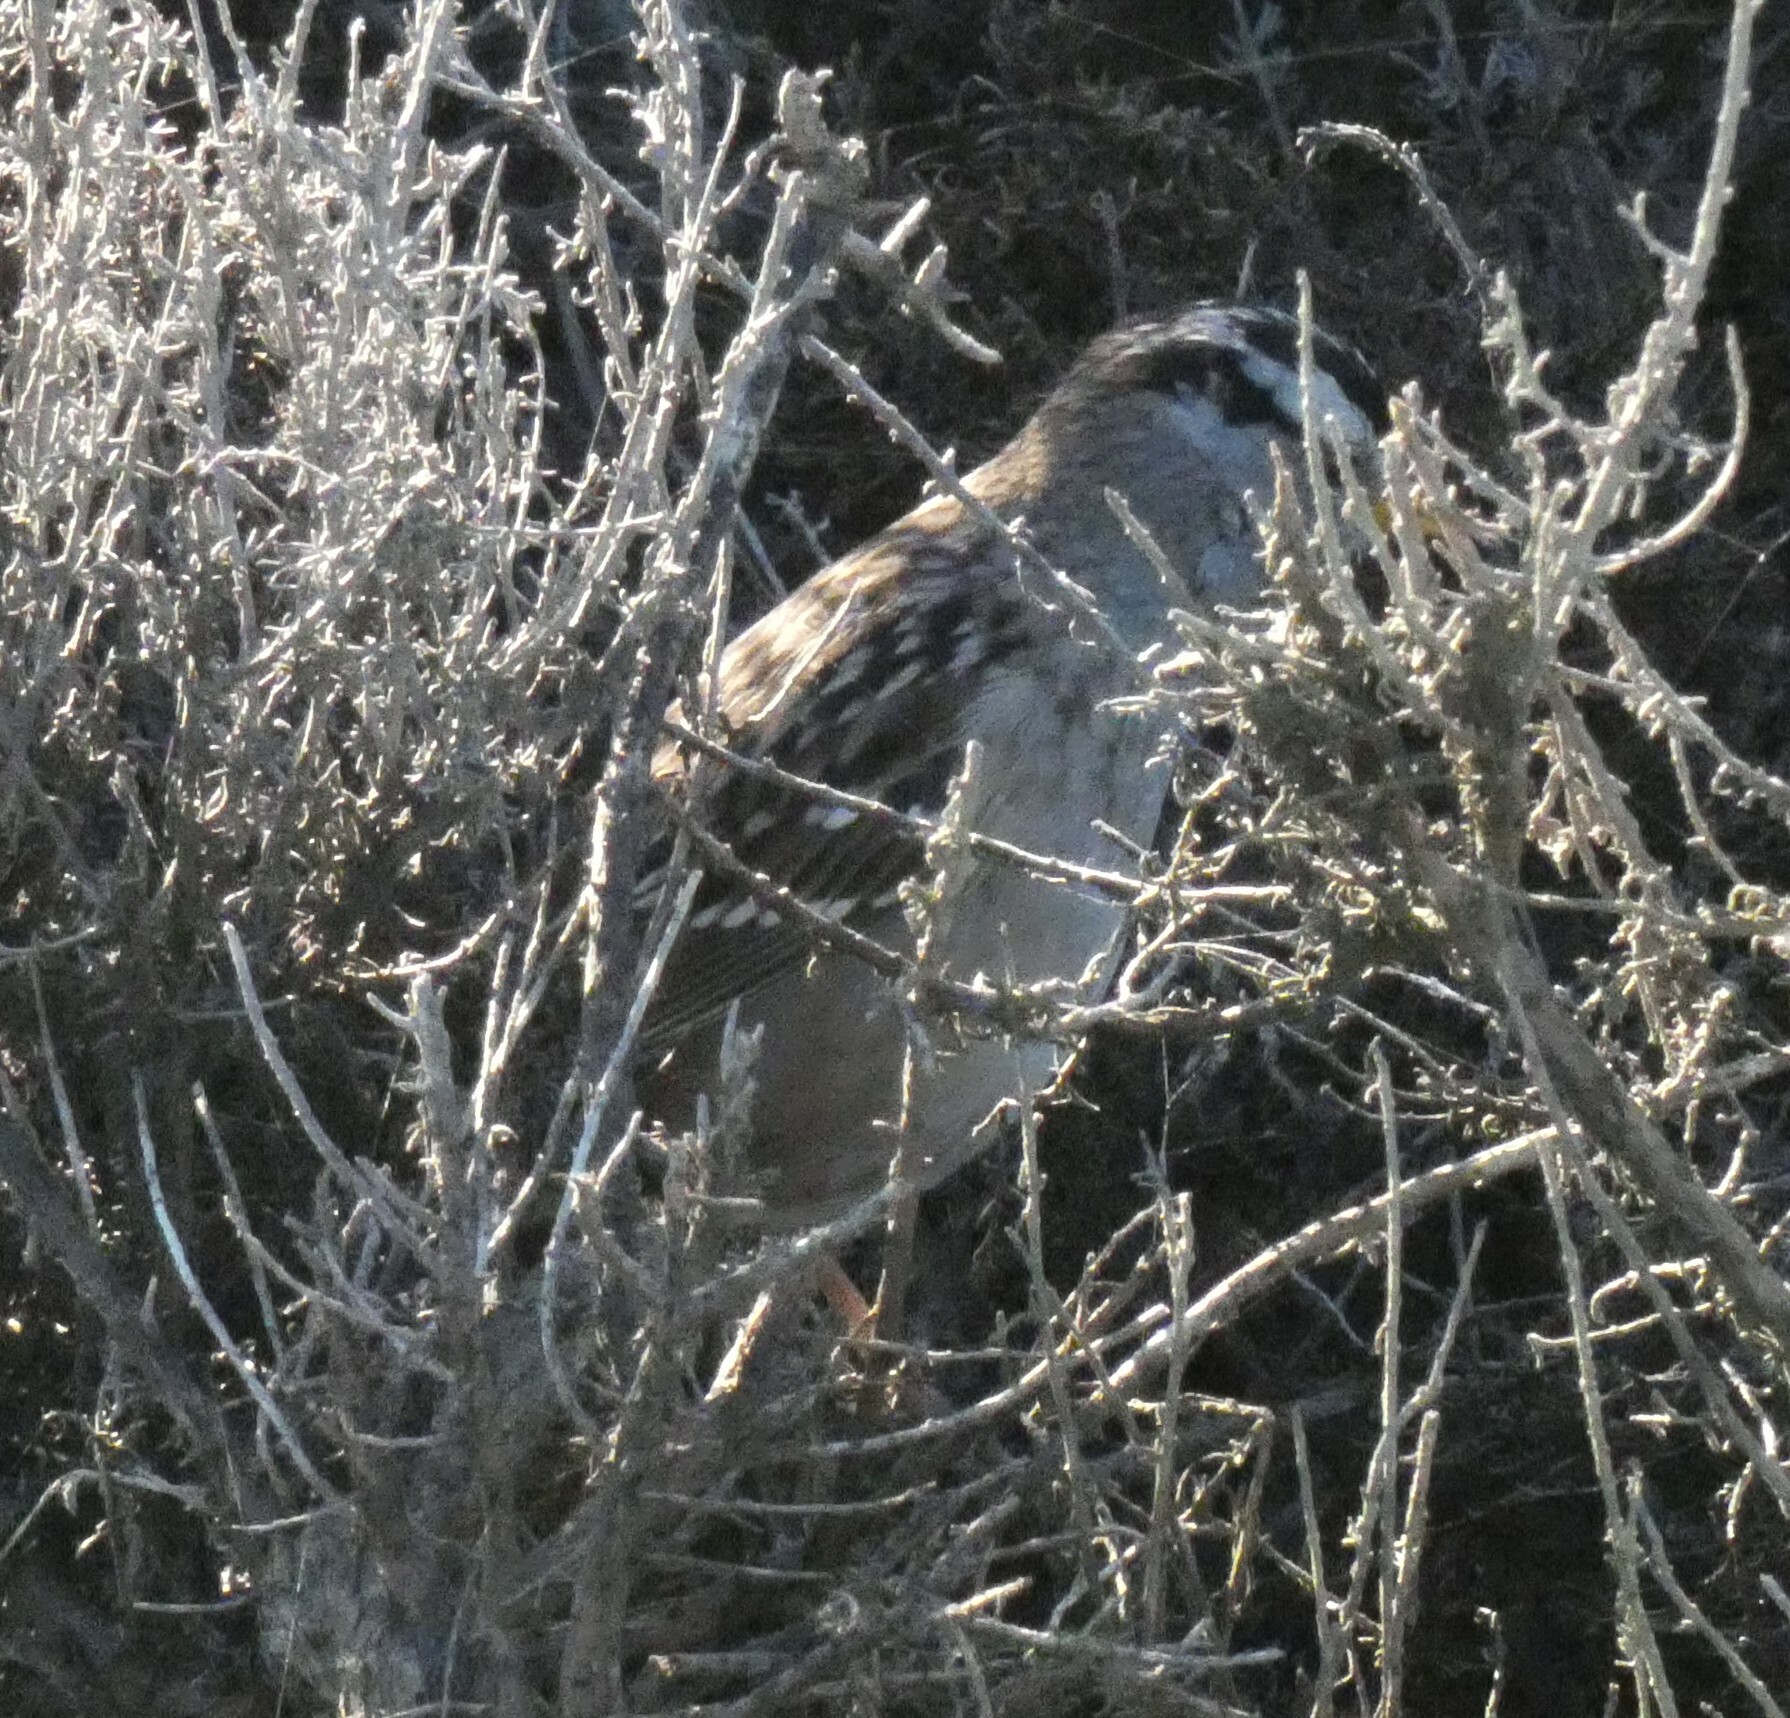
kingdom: Animalia
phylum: Chordata
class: Aves
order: Passeriformes
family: Passerellidae
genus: Zonotrichia
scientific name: Zonotrichia leucophrys
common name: White-crowned sparrow
